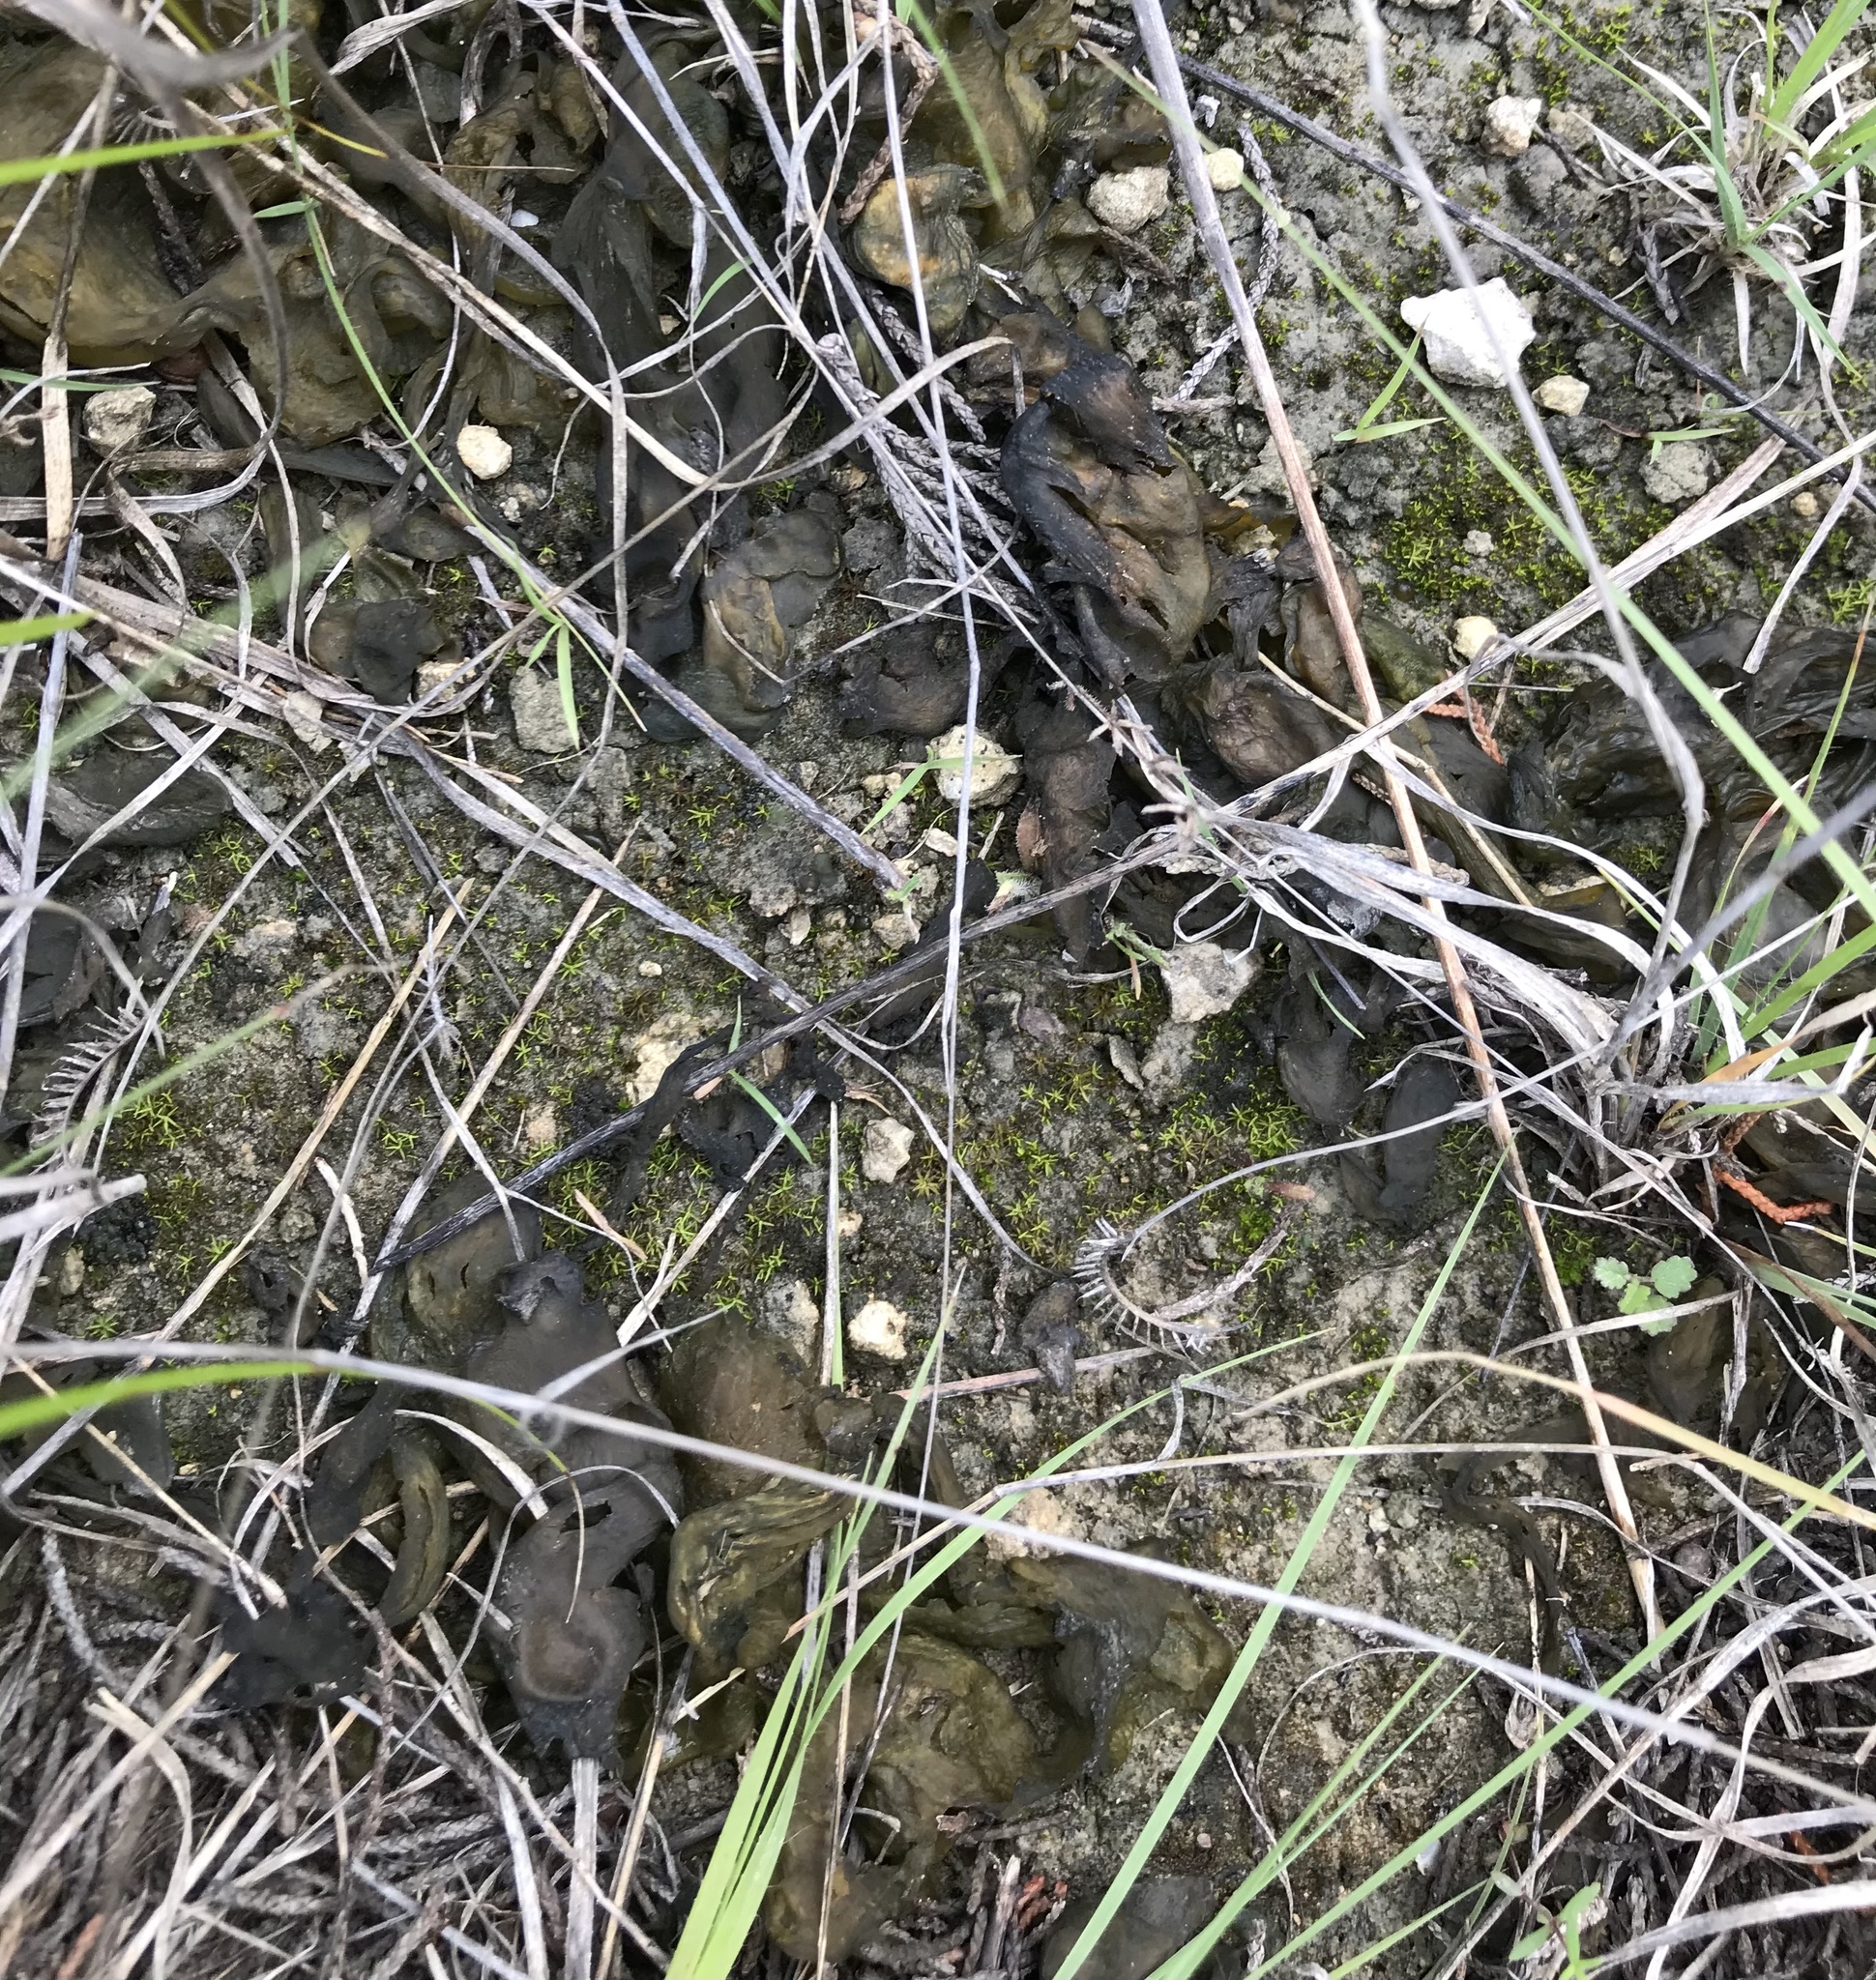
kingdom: Bacteria
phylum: Cyanobacteria
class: Cyanobacteriia
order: Cyanobacteriales
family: Nostocaceae
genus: Nostoc
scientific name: Nostoc commune
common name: Star jelly
